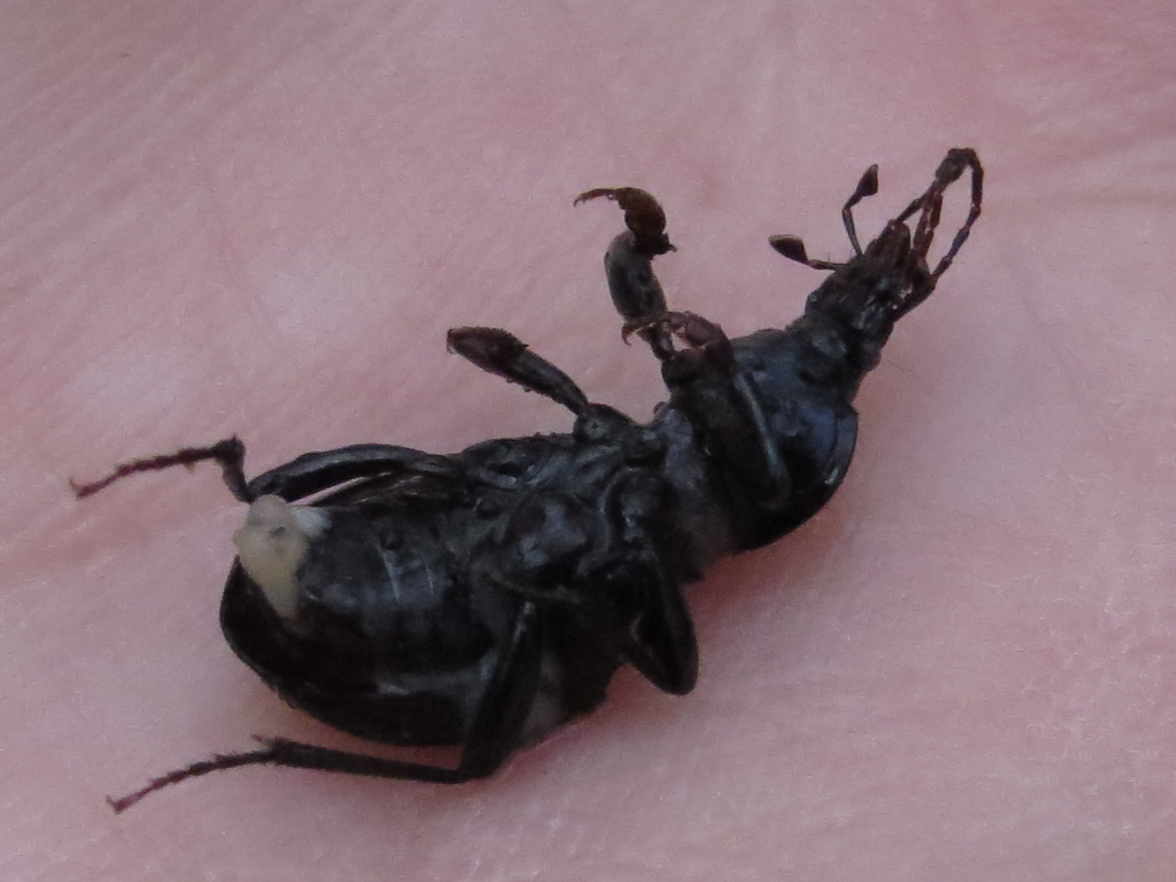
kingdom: Animalia
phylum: Arthropoda
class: Insecta
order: Coleoptera
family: Carabidae
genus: Sphaeroderus
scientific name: Sphaeroderus stenostomus
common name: Small snail-eating ground beetle
